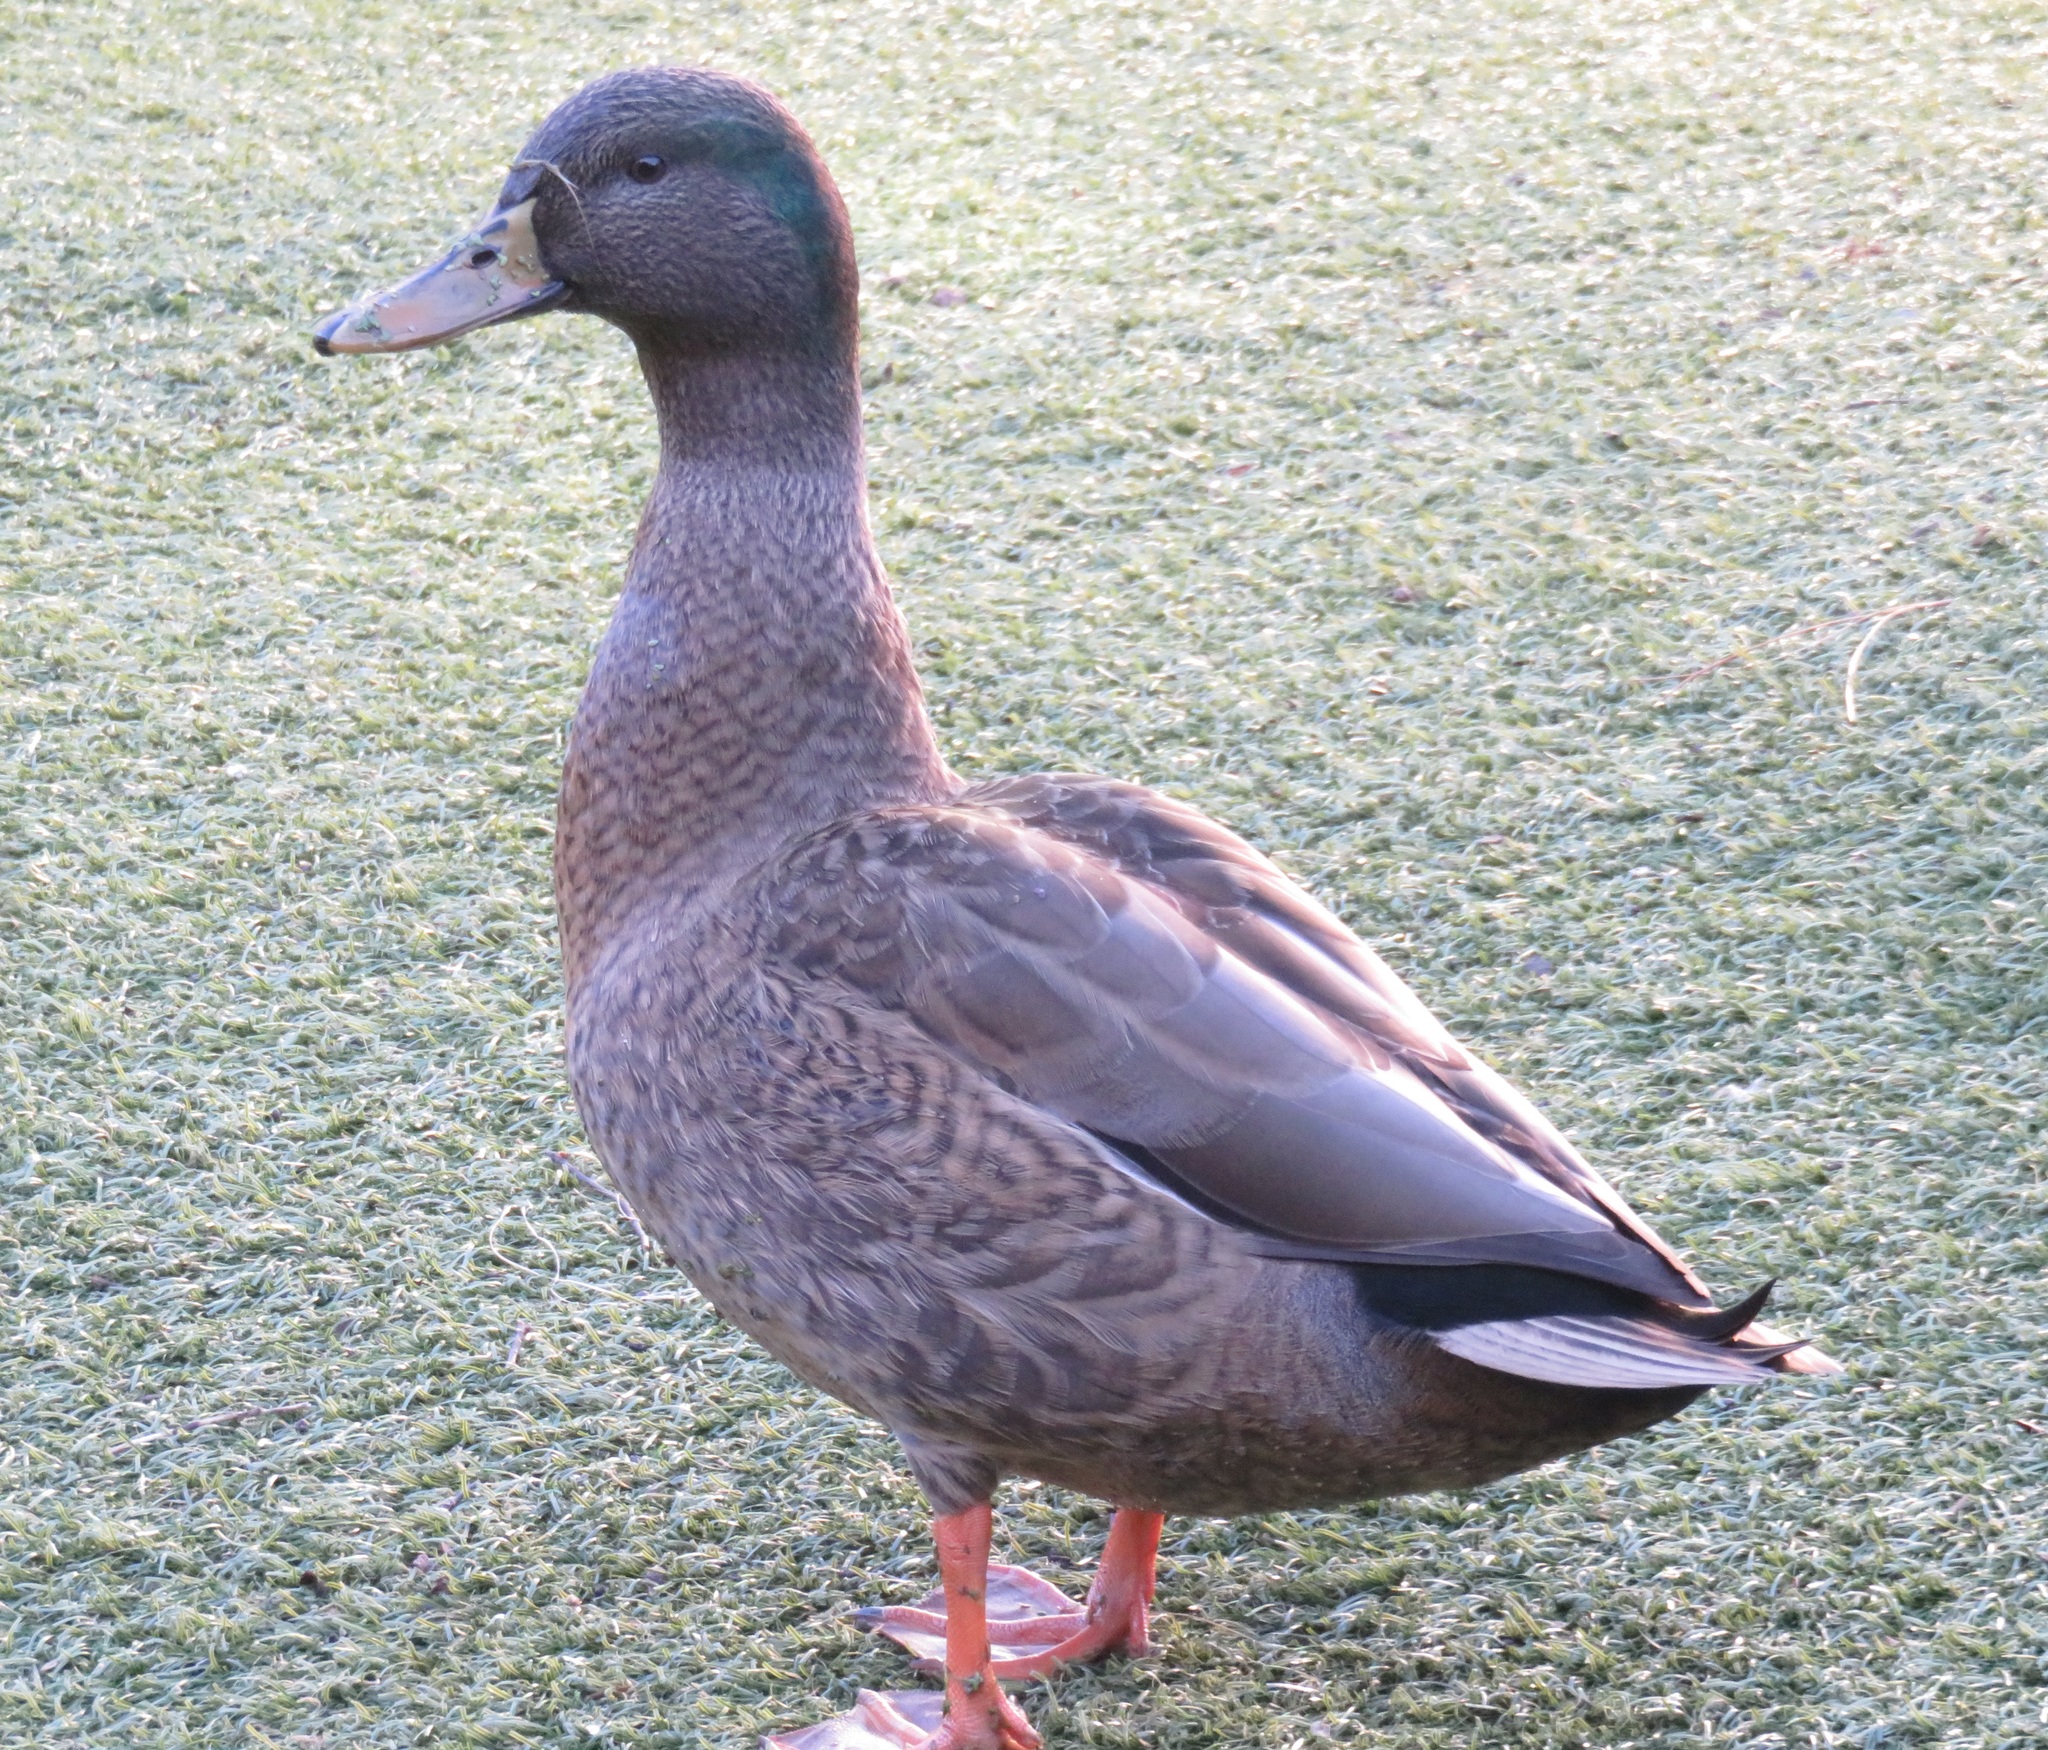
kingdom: Animalia
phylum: Chordata
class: Aves
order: Anseriformes
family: Anatidae
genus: Anas
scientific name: Anas platyrhynchos
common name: Mallard
